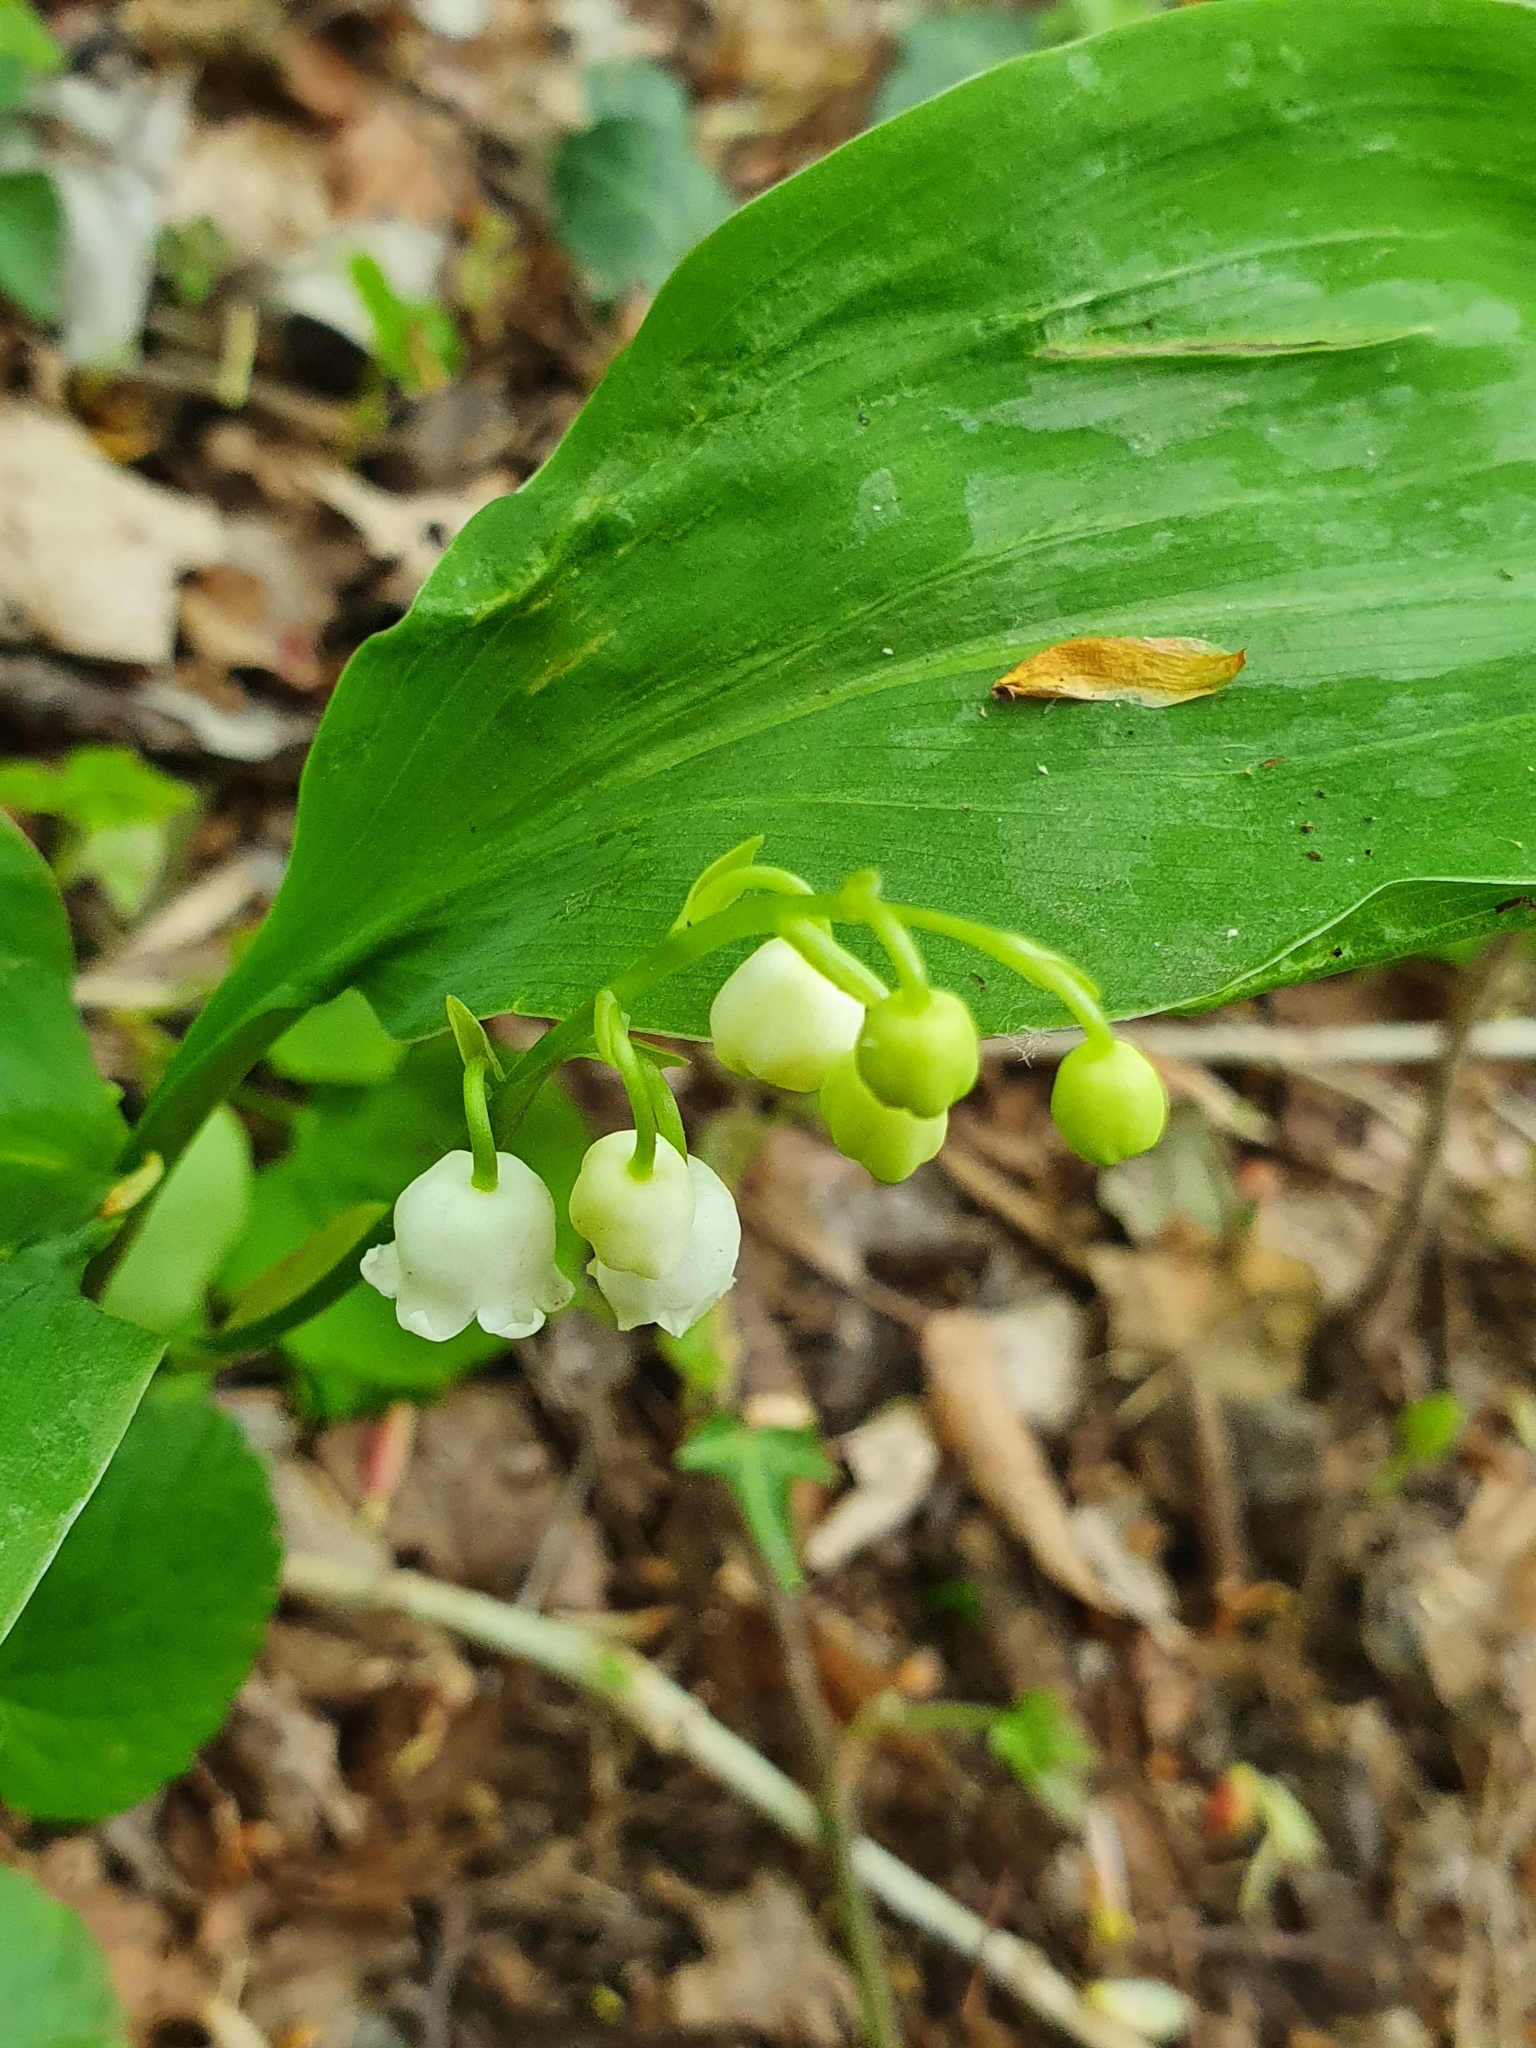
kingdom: Plantae
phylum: Tracheophyta
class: Liliopsida
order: Asparagales
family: Asparagaceae
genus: Convallaria
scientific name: Convallaria majalis
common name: Lily-of-the-valley
